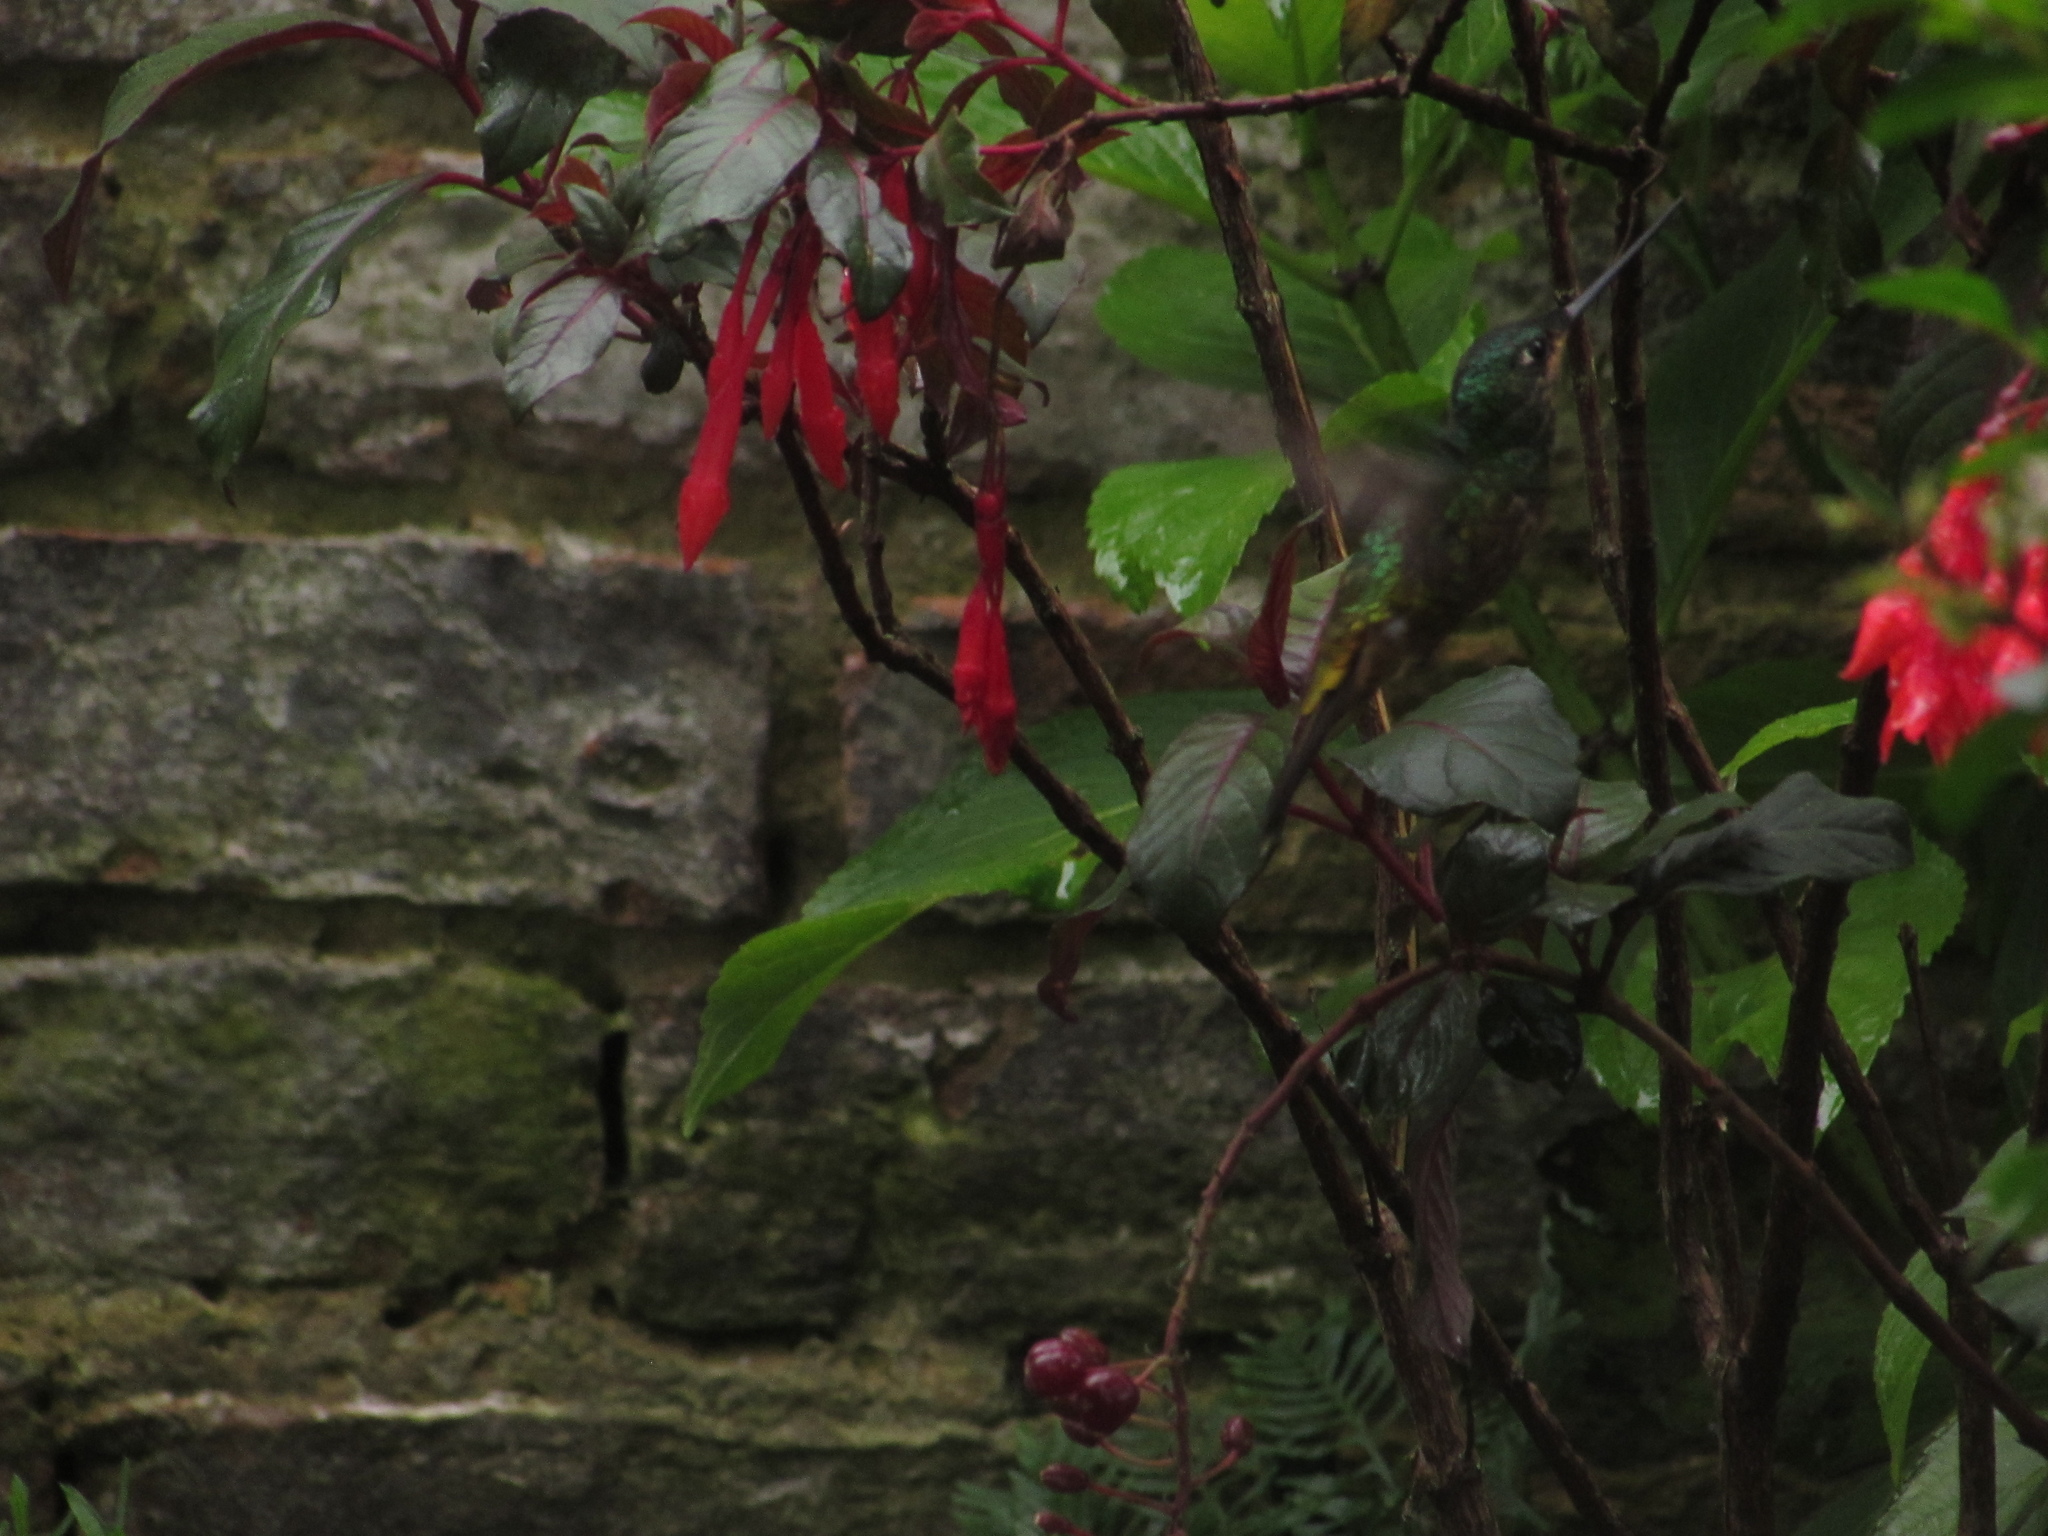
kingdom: Animalia
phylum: Chordata
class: Aves
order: Apodiformes
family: Trochilidae
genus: Coeligena
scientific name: Coeligena bonapartei
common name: Golden-bellied starfrontlet
